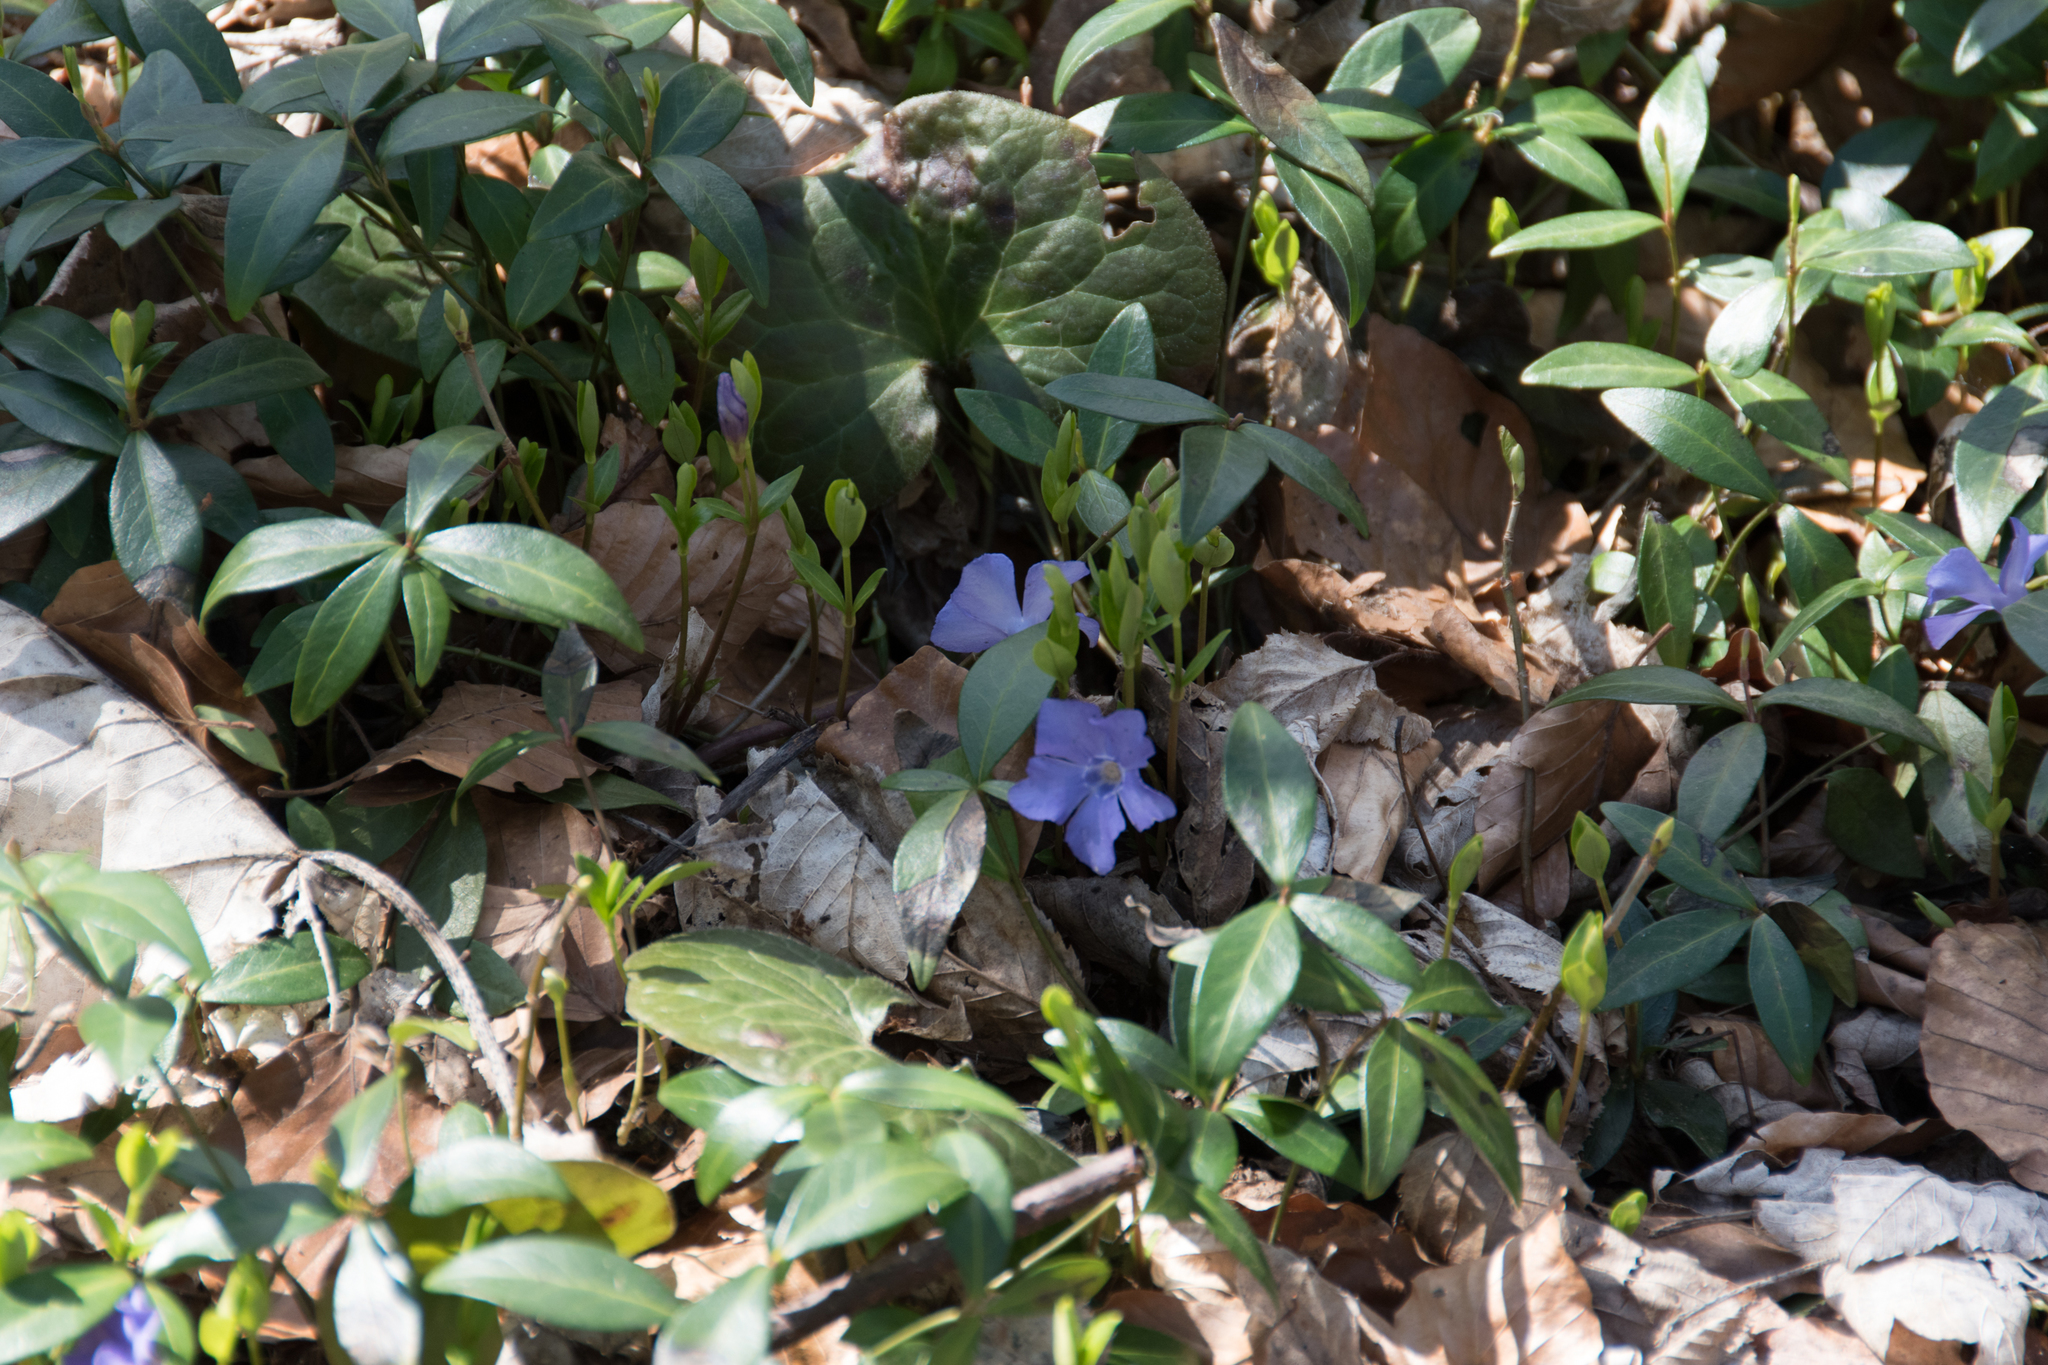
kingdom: Plantae
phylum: Tracheophyta
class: Magnoliopsida
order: Gentianales
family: Apocynaceae
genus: Vinca
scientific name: Vinca minor
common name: Lesser periwinkle
